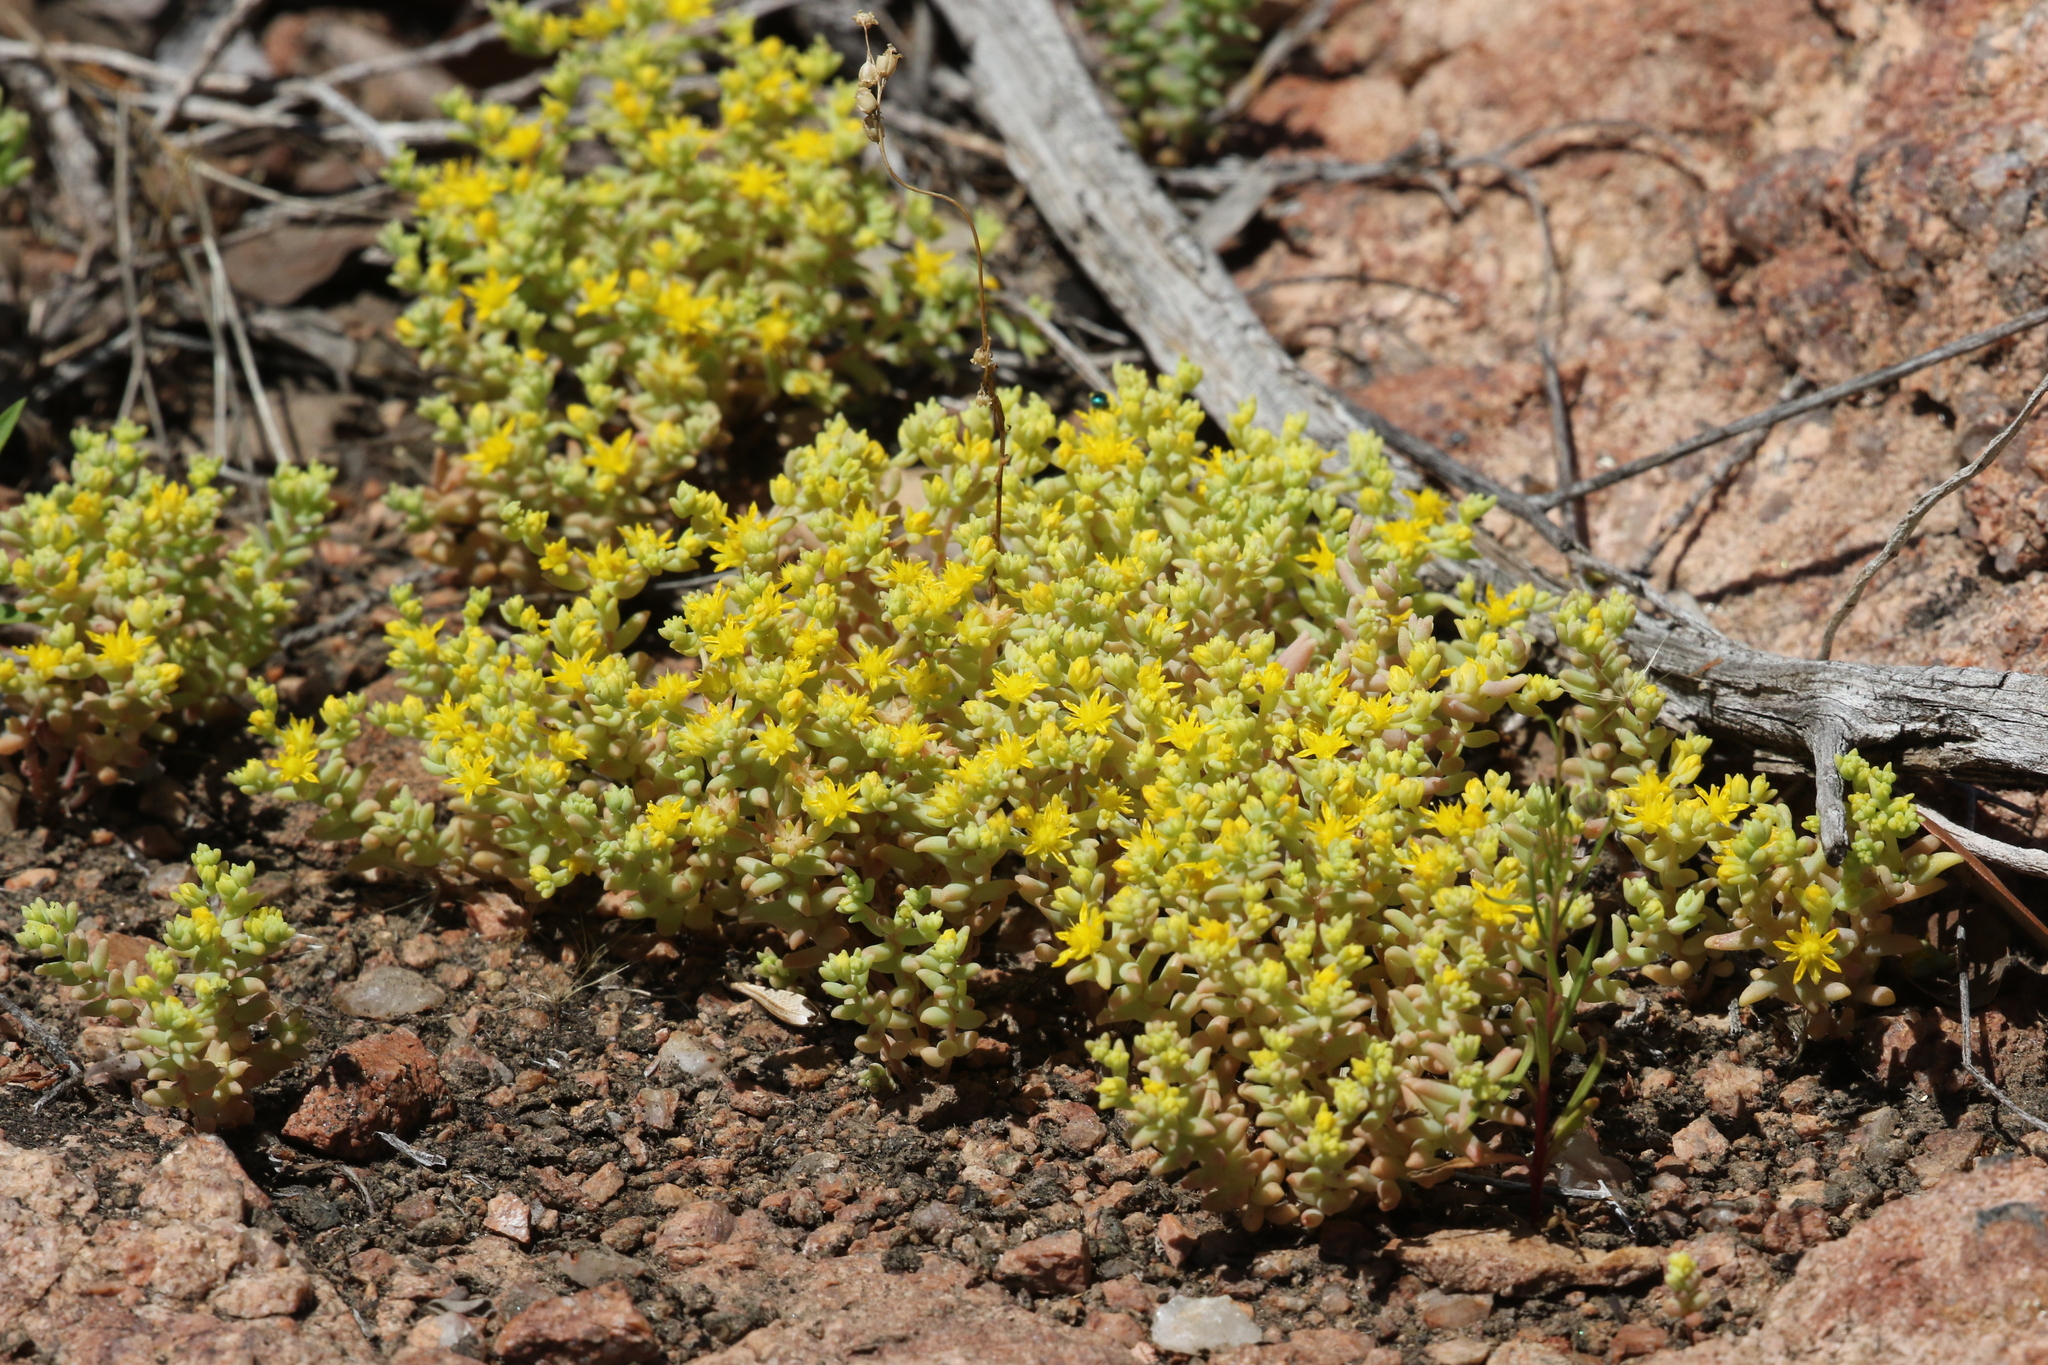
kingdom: Plantae
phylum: Tracheophyta
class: Magnoliopsida
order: Saxifragales
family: Crassulaceae
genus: Sedum
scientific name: Sedum nuttallii
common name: Yellow stonecrop
